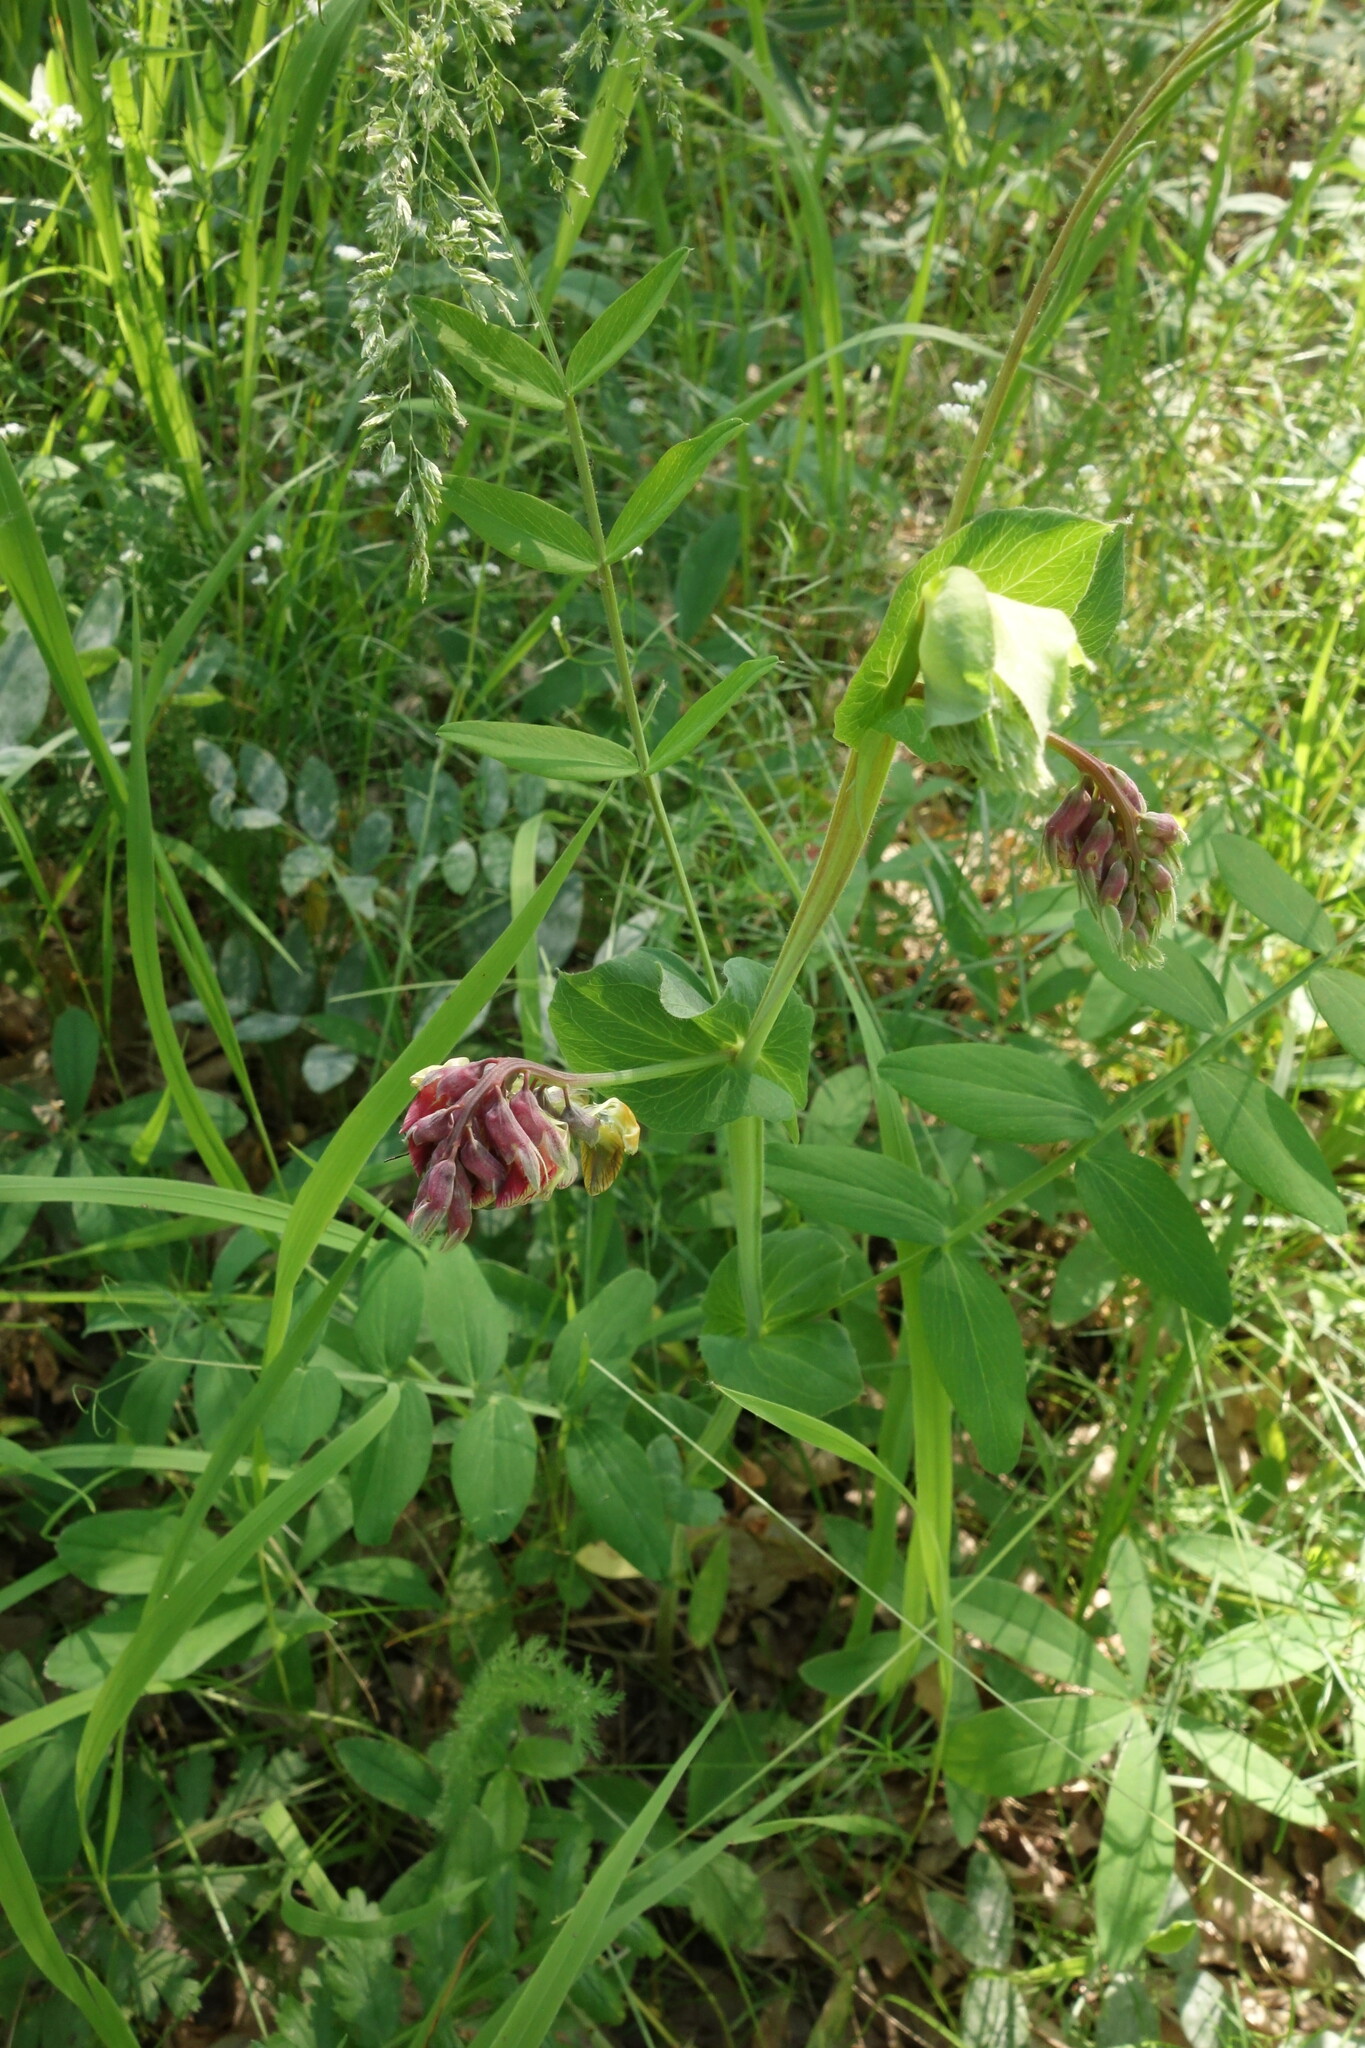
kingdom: Plantae
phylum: Tracheophyta
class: Magnoliopsida
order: Fabales
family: Fabaceae
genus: Lathyrus
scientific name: Lathyrus pisiformis
